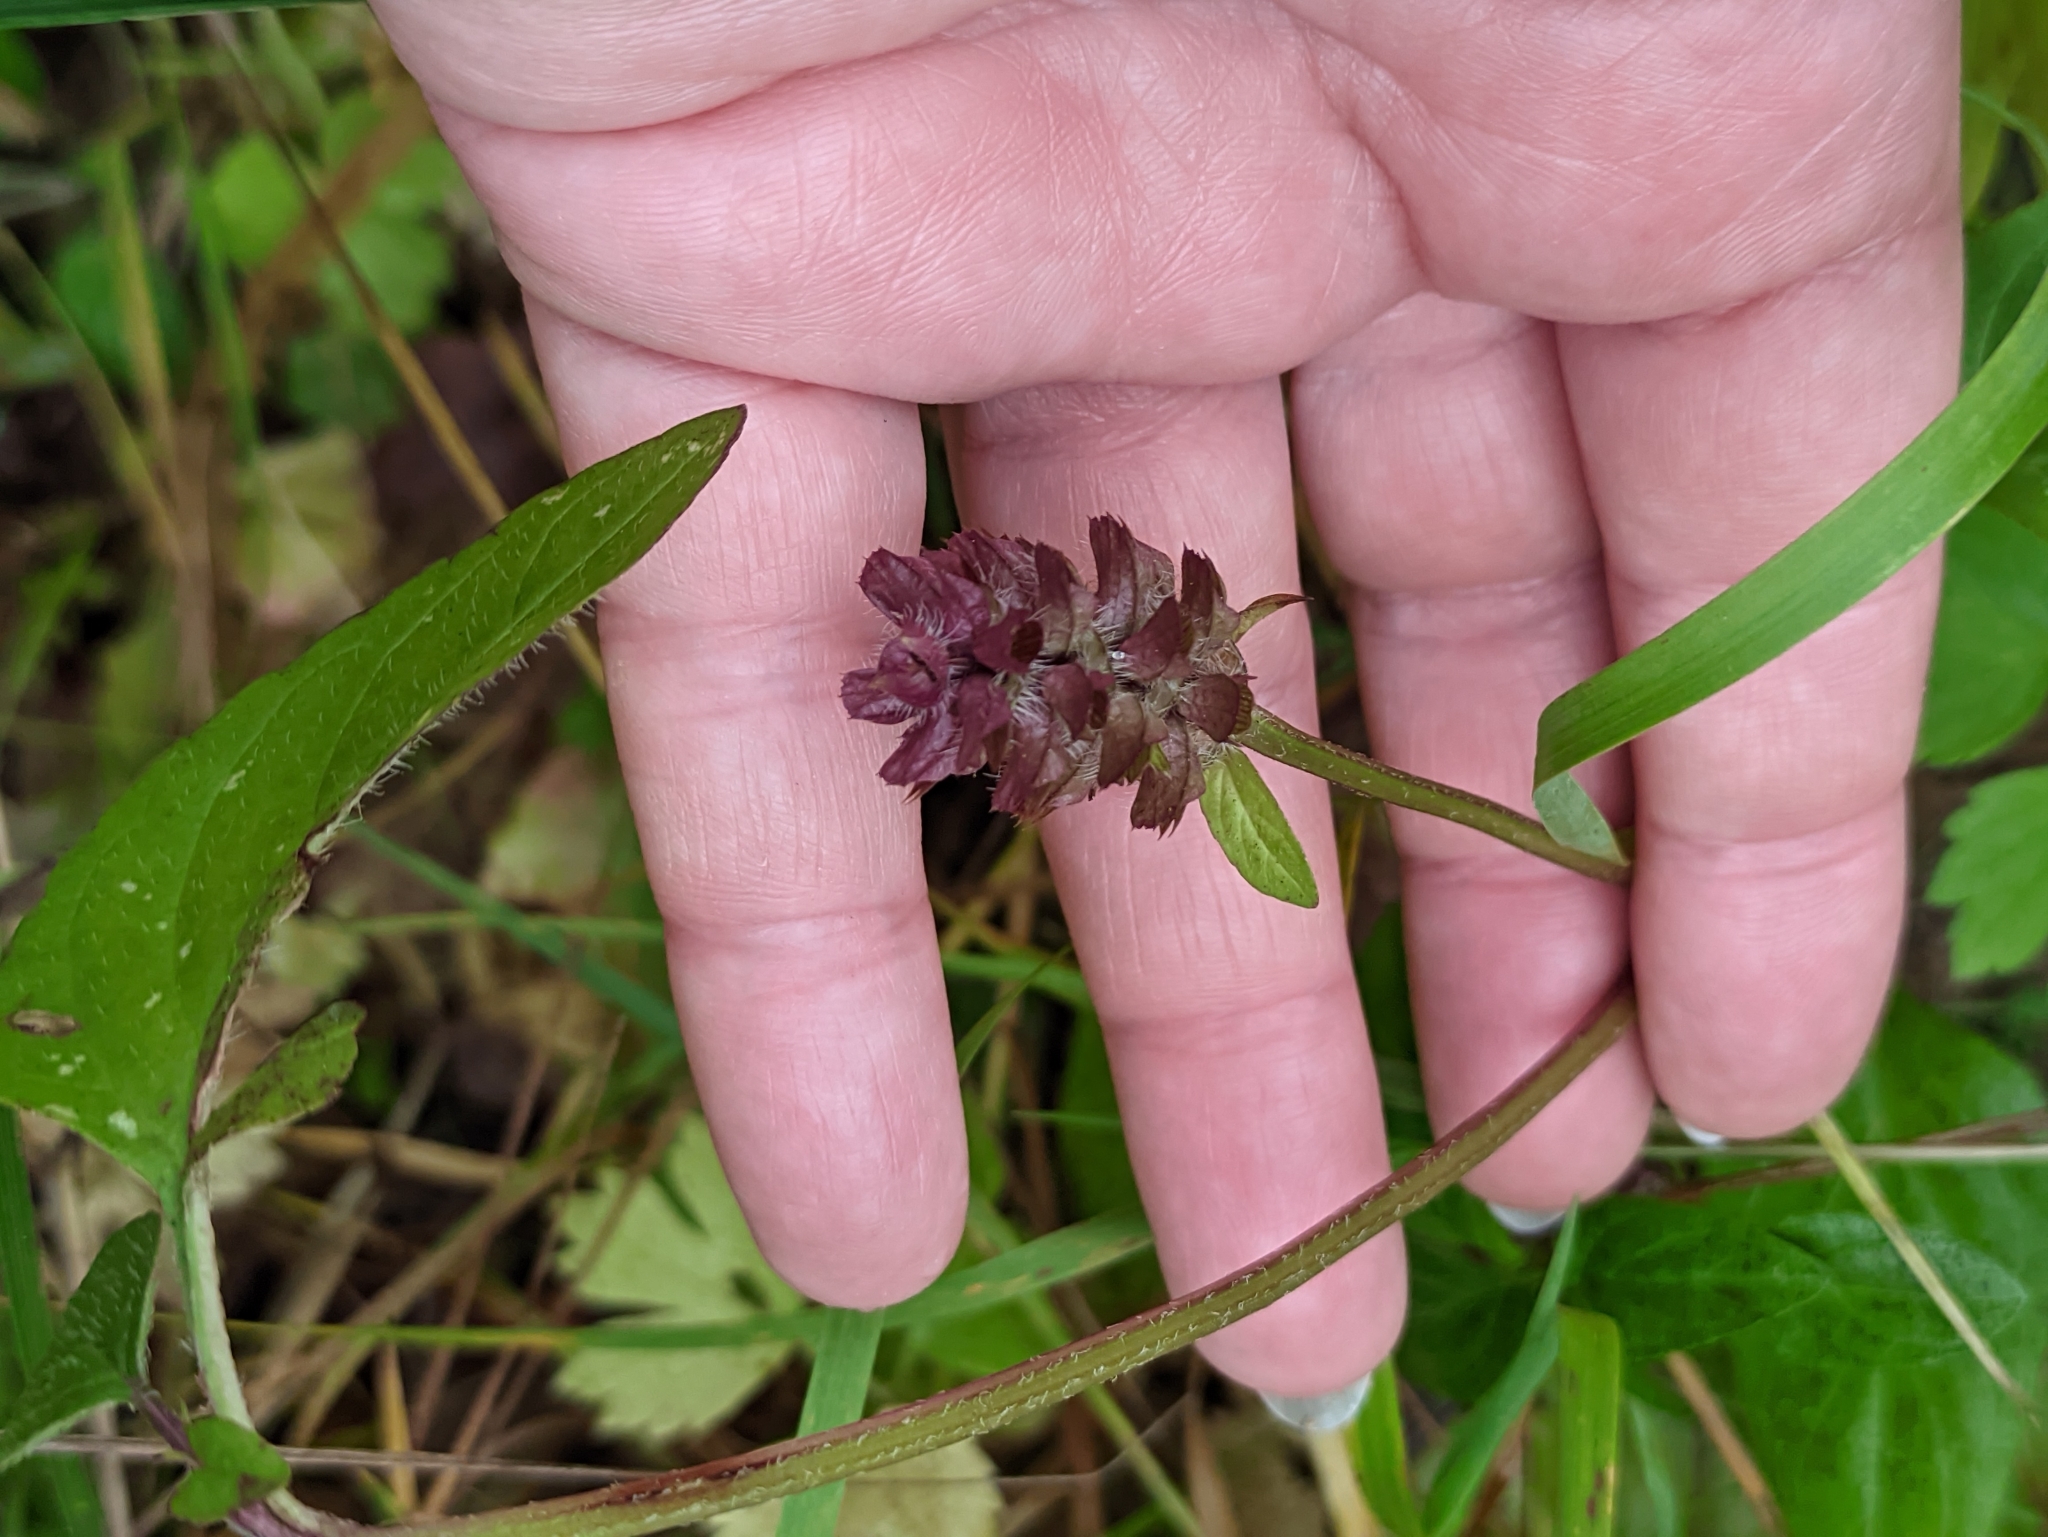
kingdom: Plantae
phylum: Tracheophyta
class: Magnoliopsida
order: Lamiales
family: Lamiaceae
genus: Prunella
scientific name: Prunella vulgaris
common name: Heal-all
